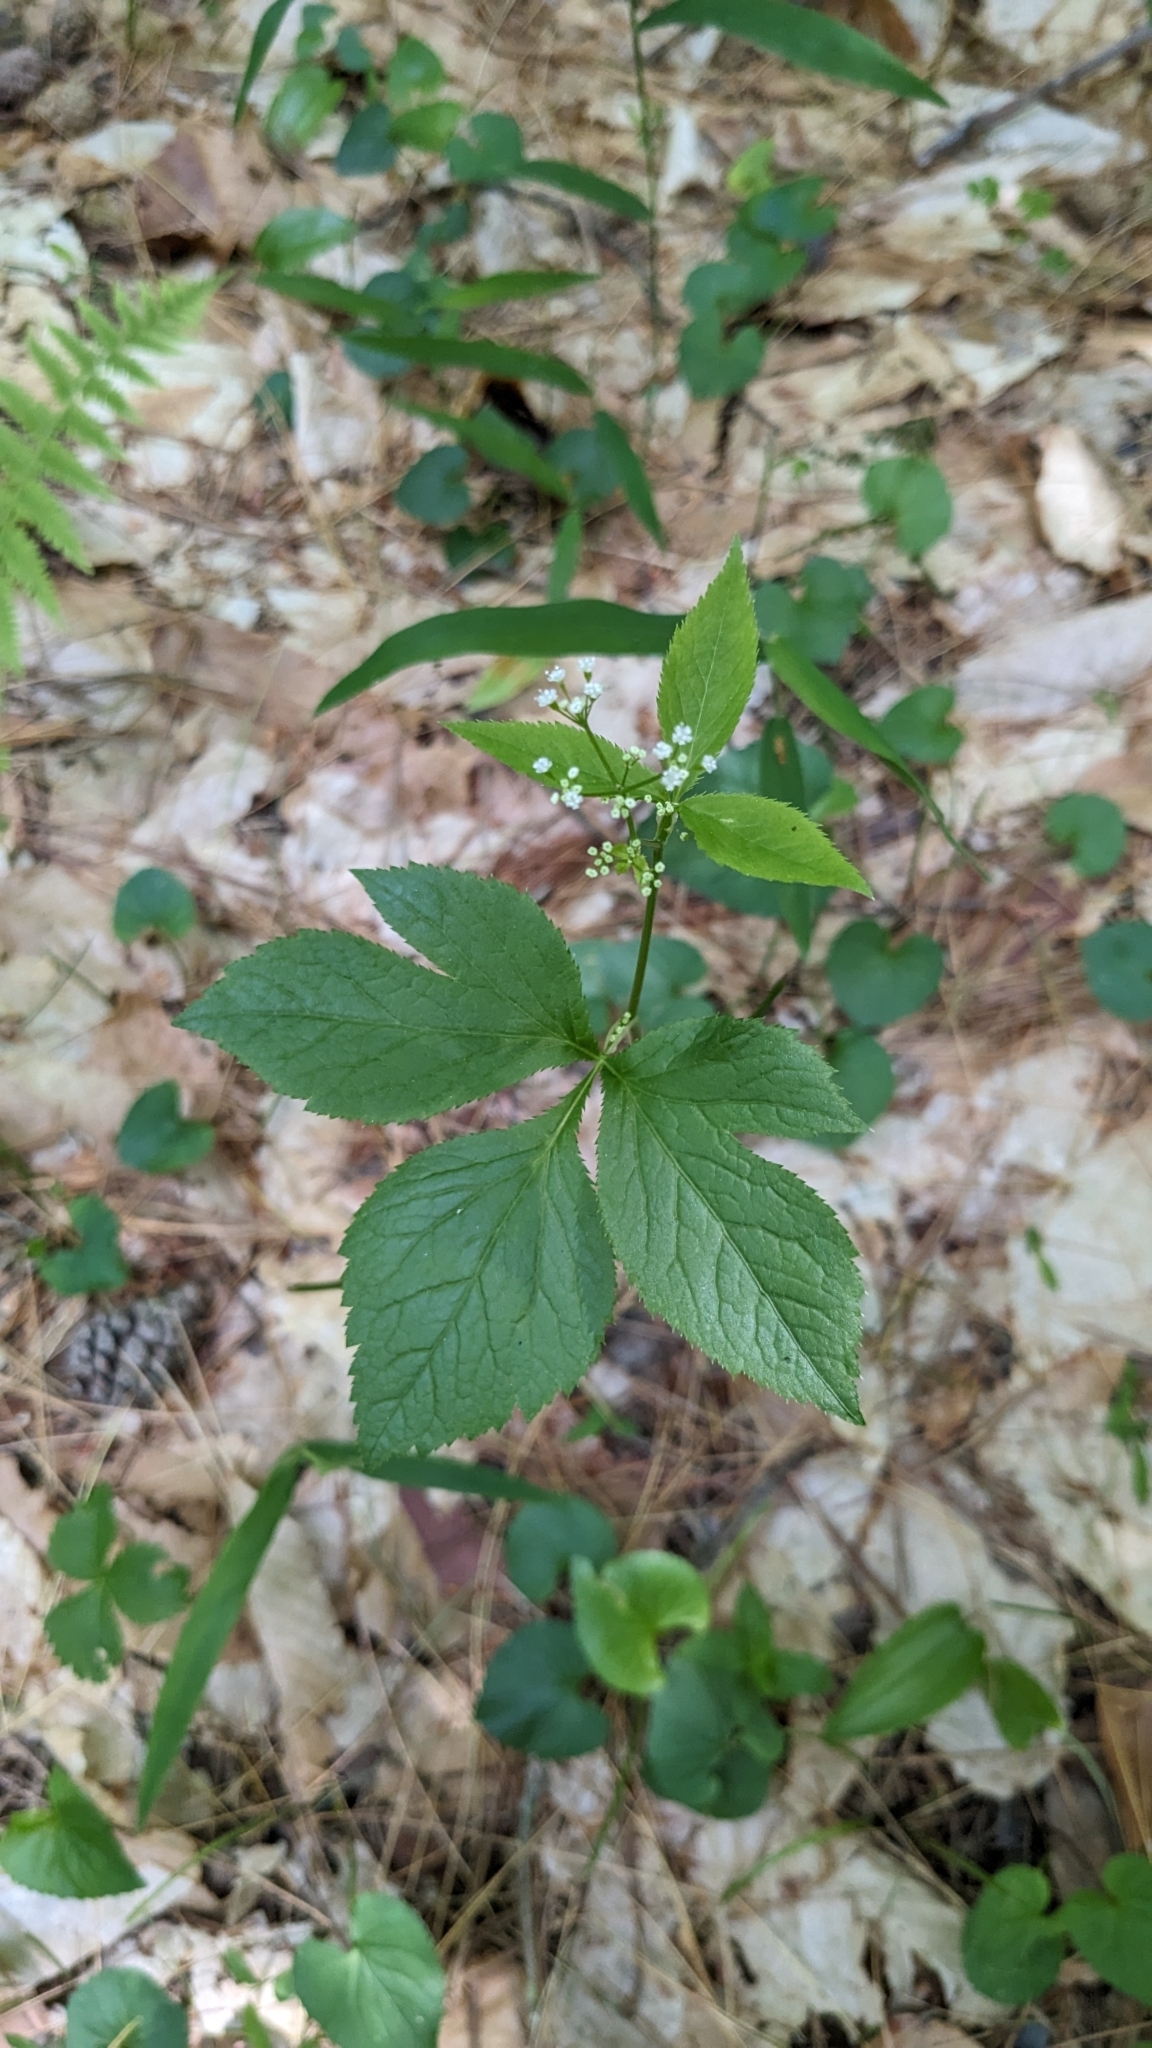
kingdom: Plantae
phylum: Tracheophyta
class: Magnoliopsida
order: Apiales
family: Apiaceae
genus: Cryptotaenia
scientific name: Cryptotaenia canadensis
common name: Honewort
